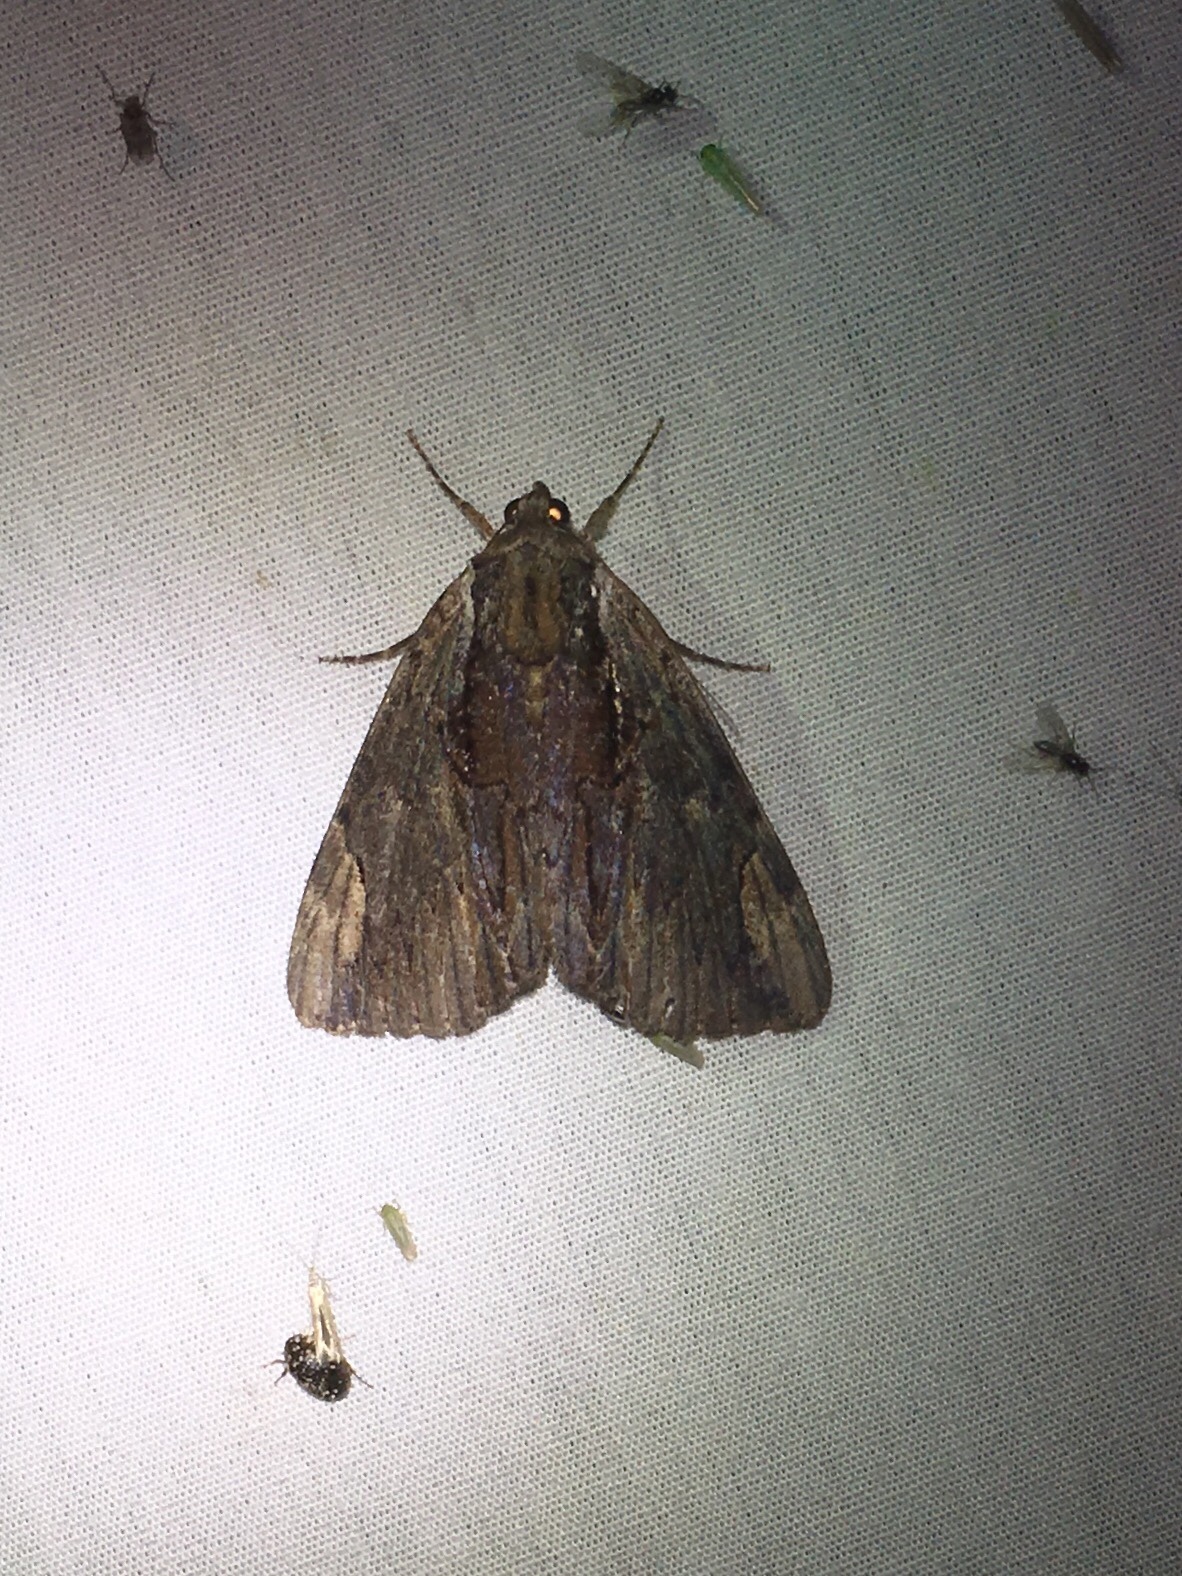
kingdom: Animalia
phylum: Arthropoda
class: Insecta
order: Lepidoptera
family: Erebidae
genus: Catocala
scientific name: Catocala ultronia
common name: Ultronia underwing
